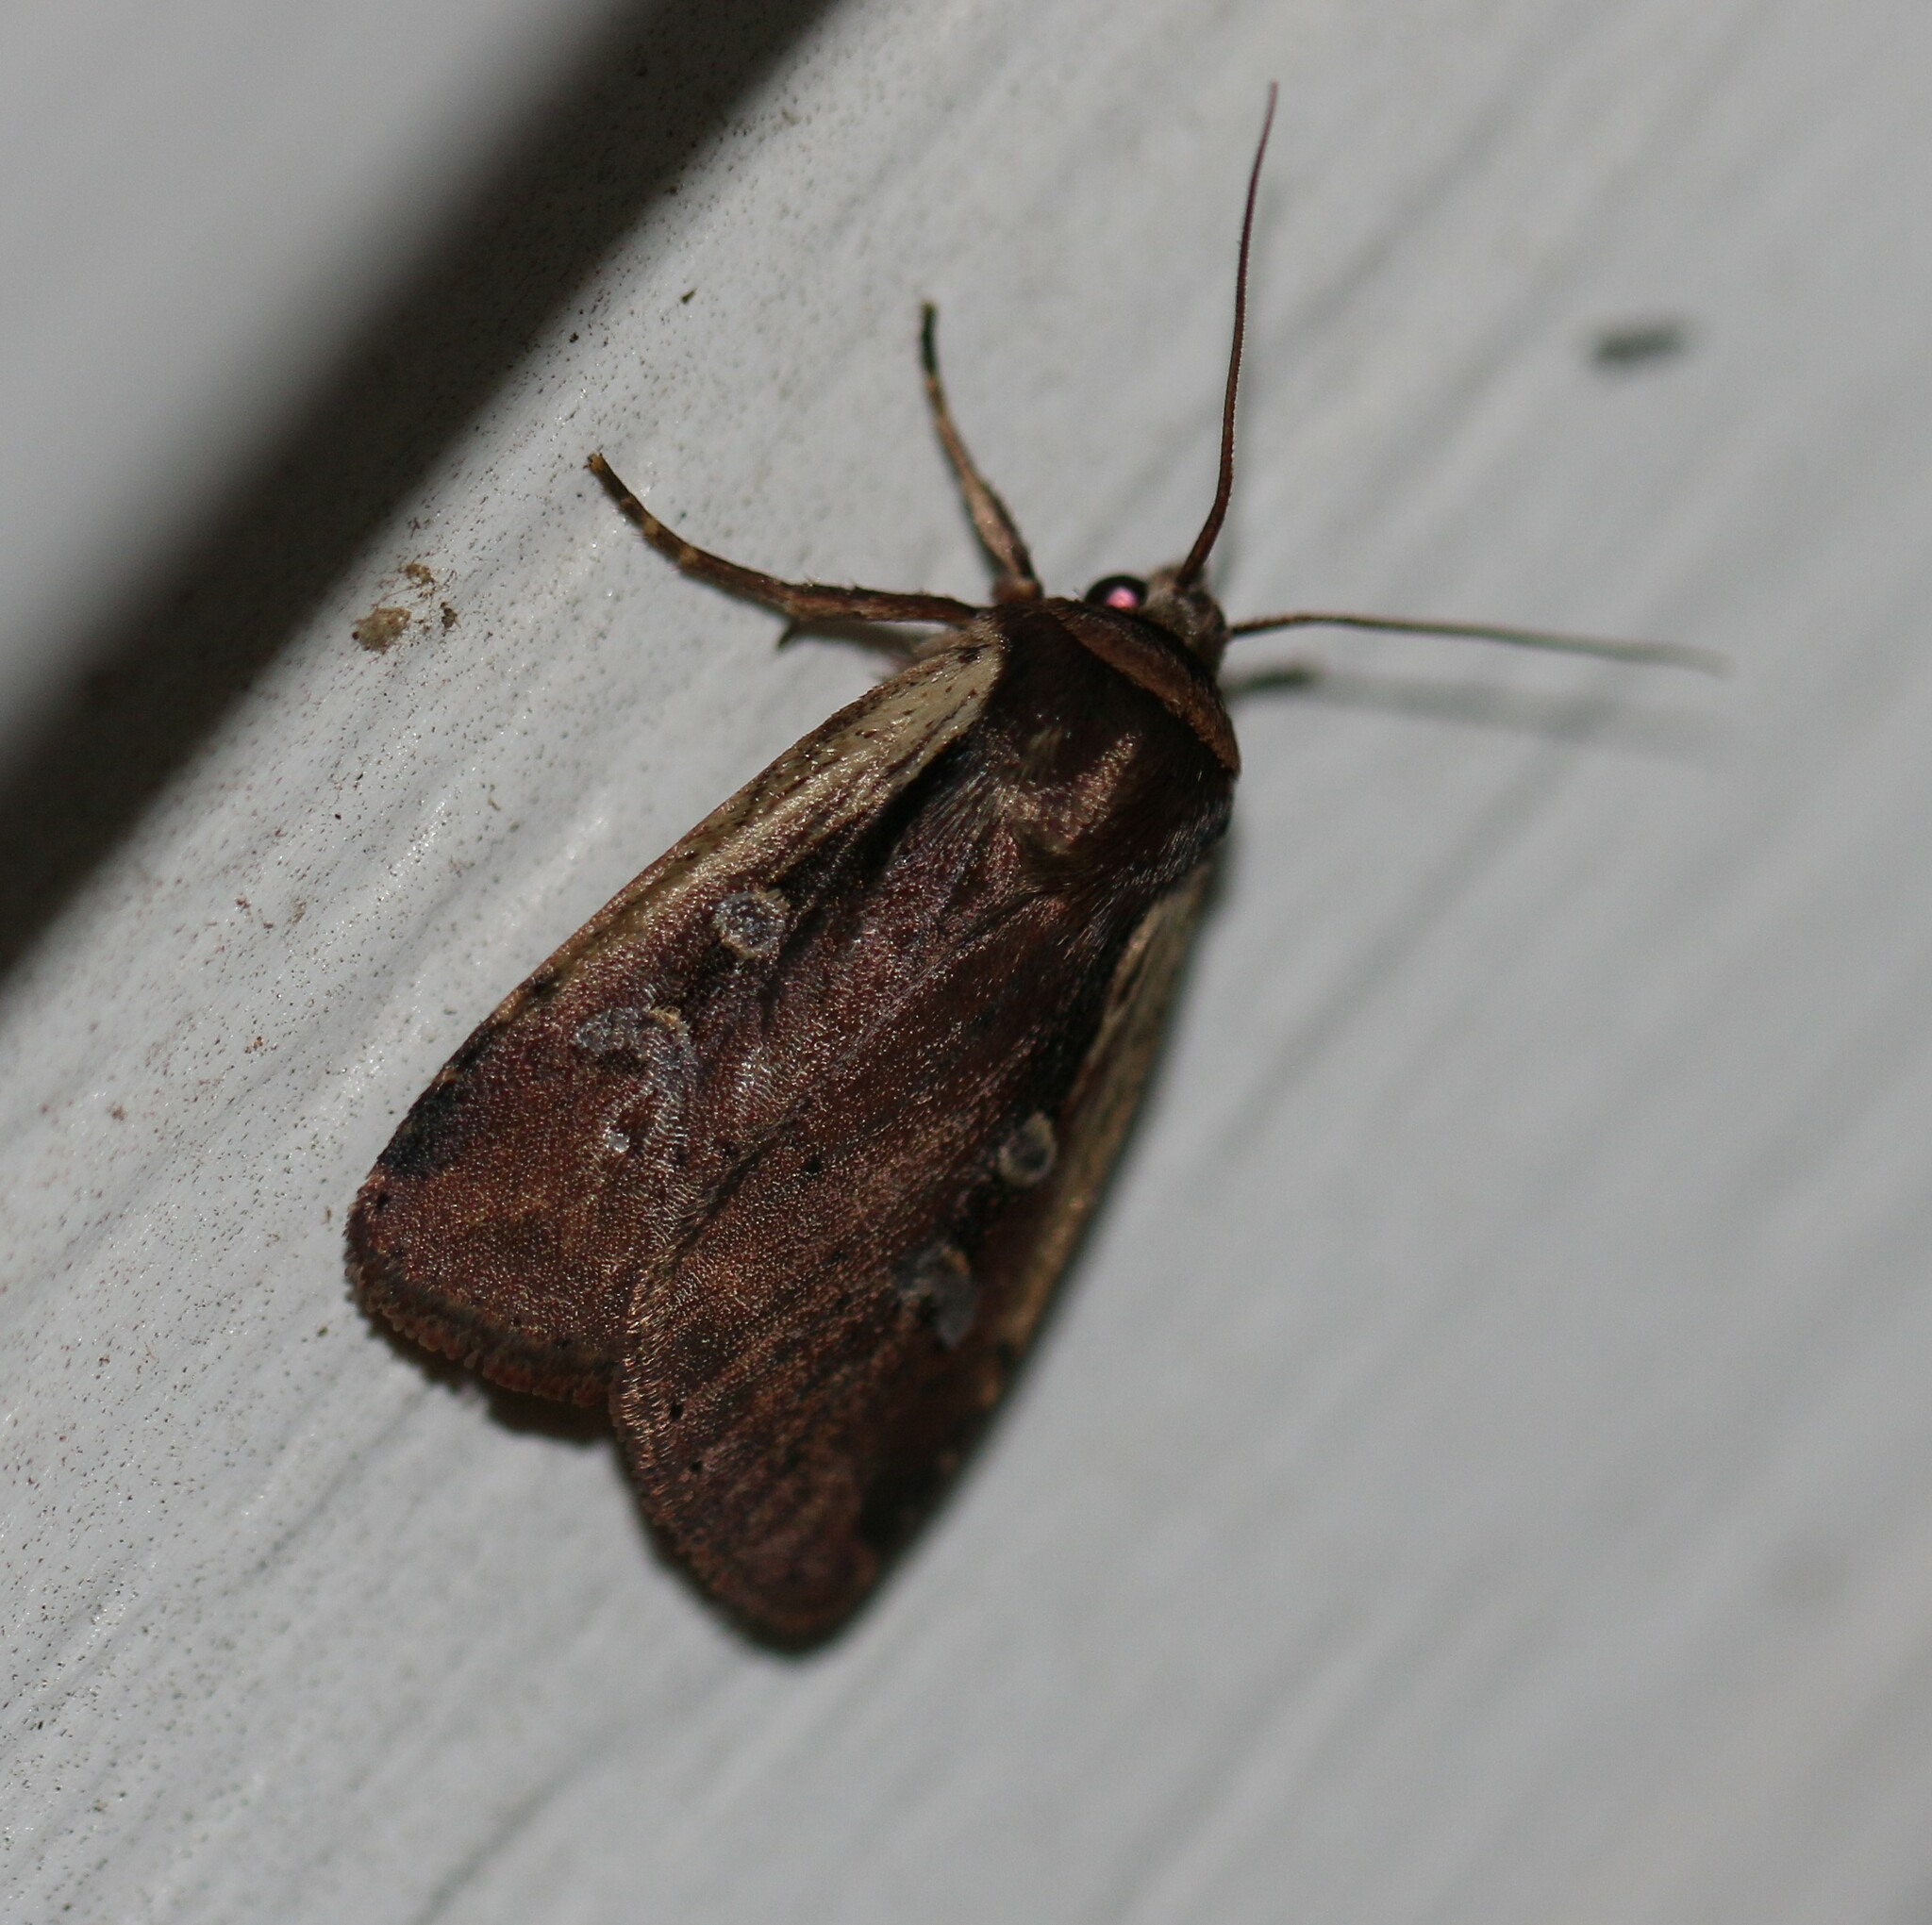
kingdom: Animalia
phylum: Arthropoda
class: Insecta
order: Lepidoptera
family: Noctuidae
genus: Ochropleura
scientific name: Ochropleura implecta
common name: Flame-shouldered dart
